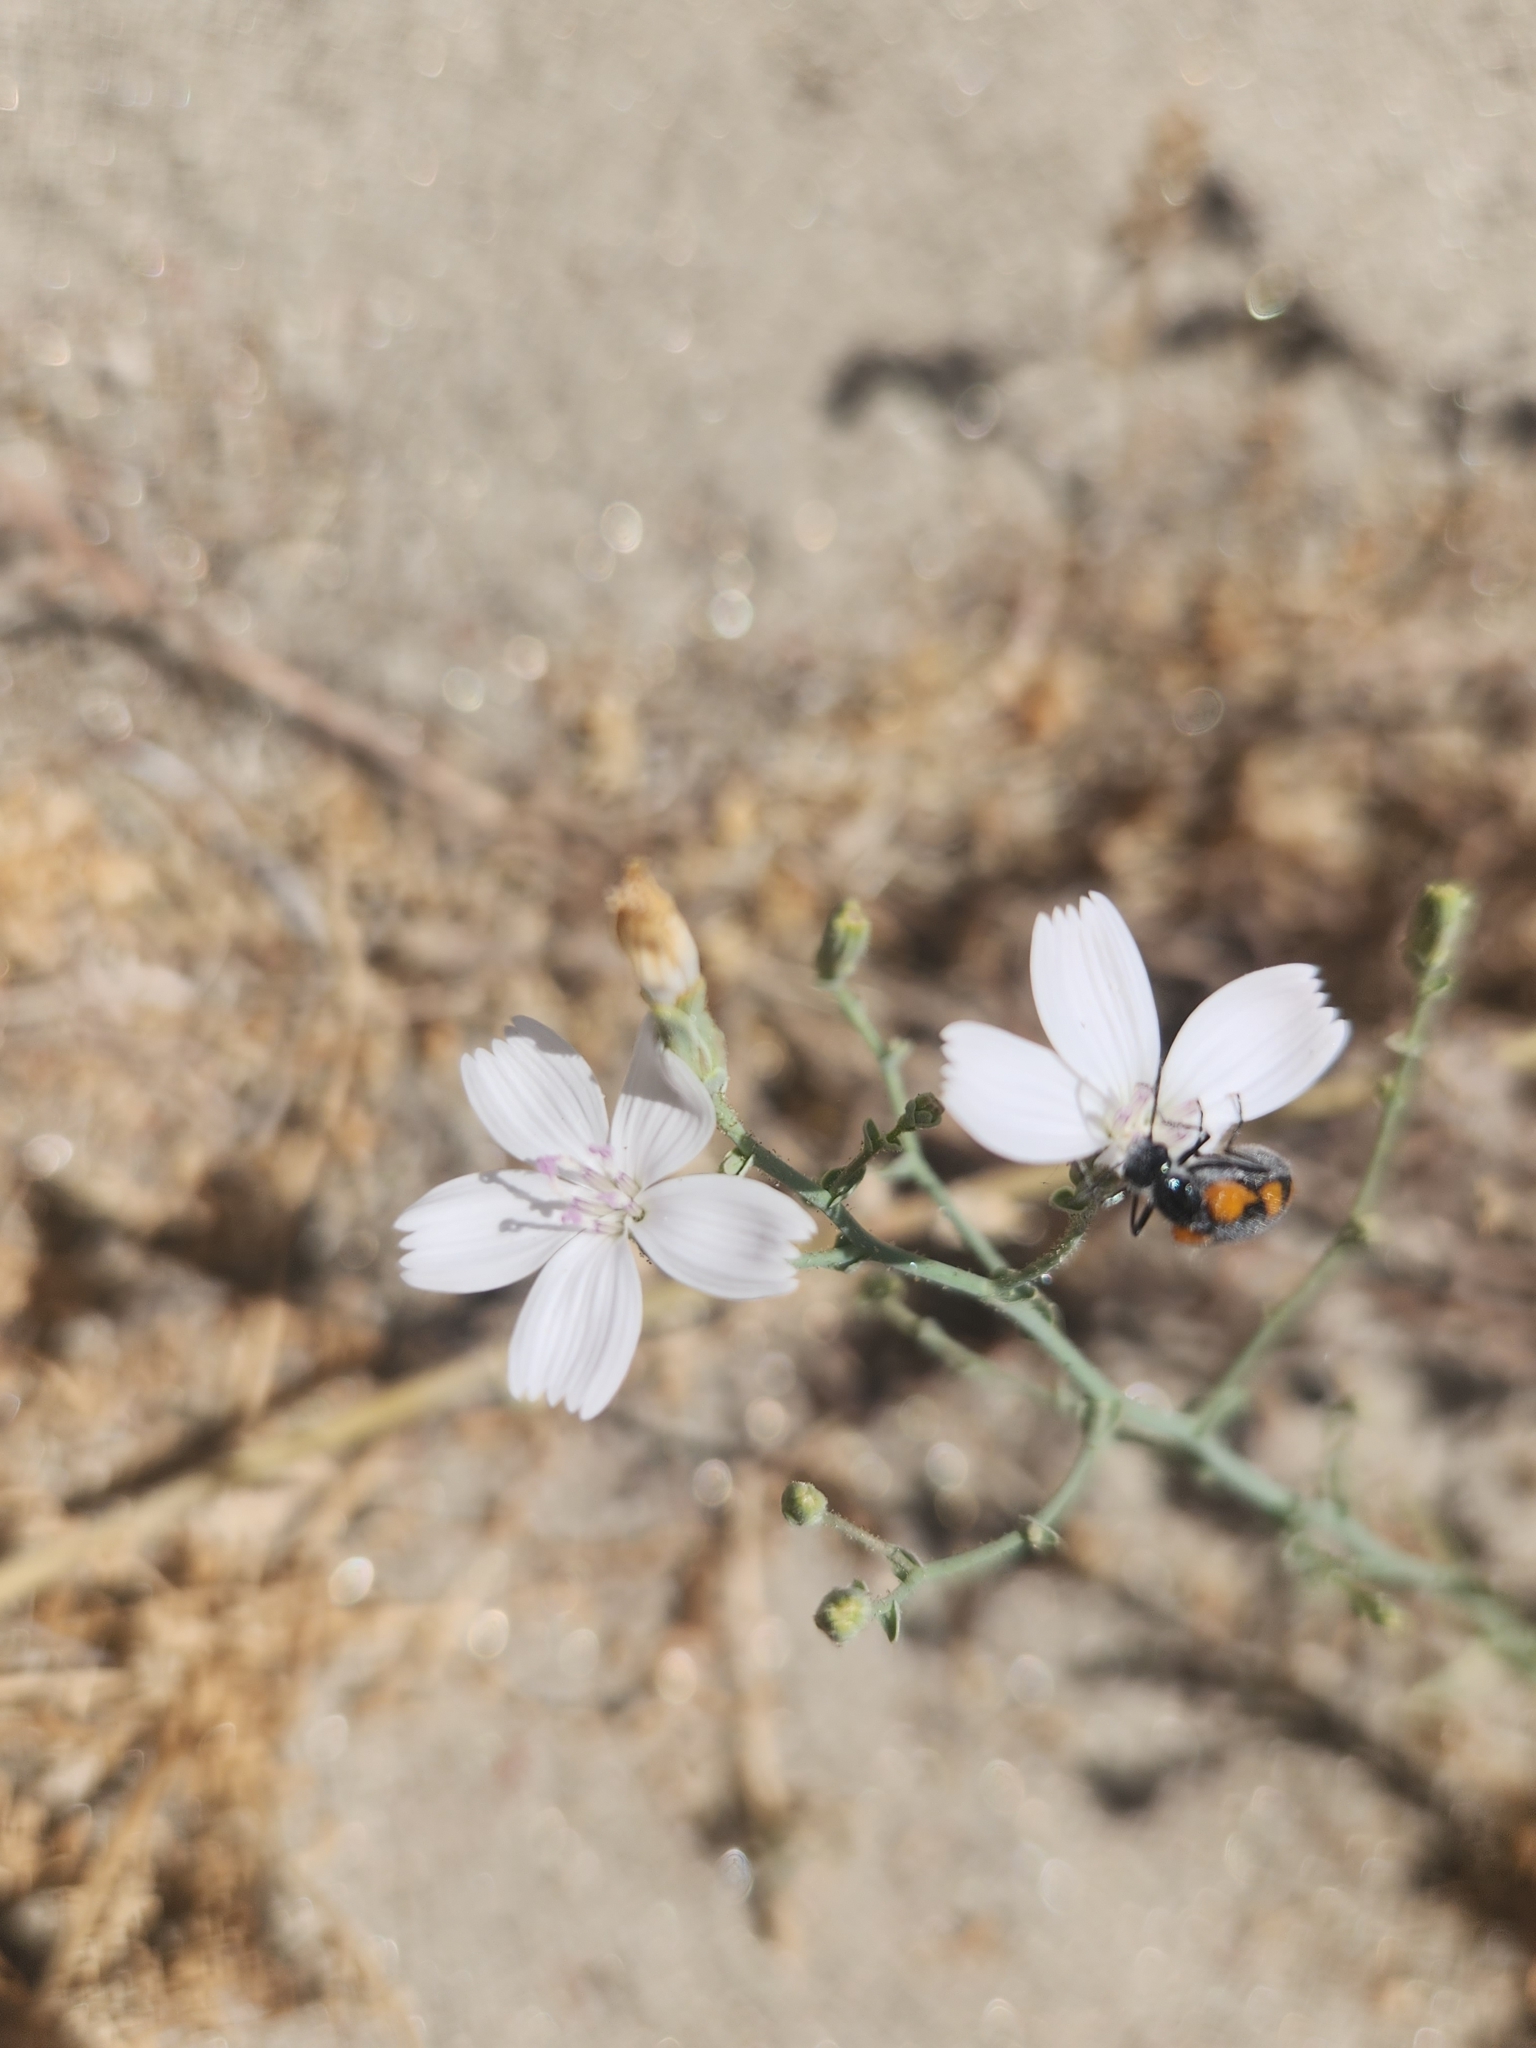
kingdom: Plantae
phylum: Tracheophyta
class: Magnoliopsida
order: Asterales
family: Asteraceae
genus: Stephanomeria
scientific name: Stephanomeria exigua
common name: Small wirelettuce
